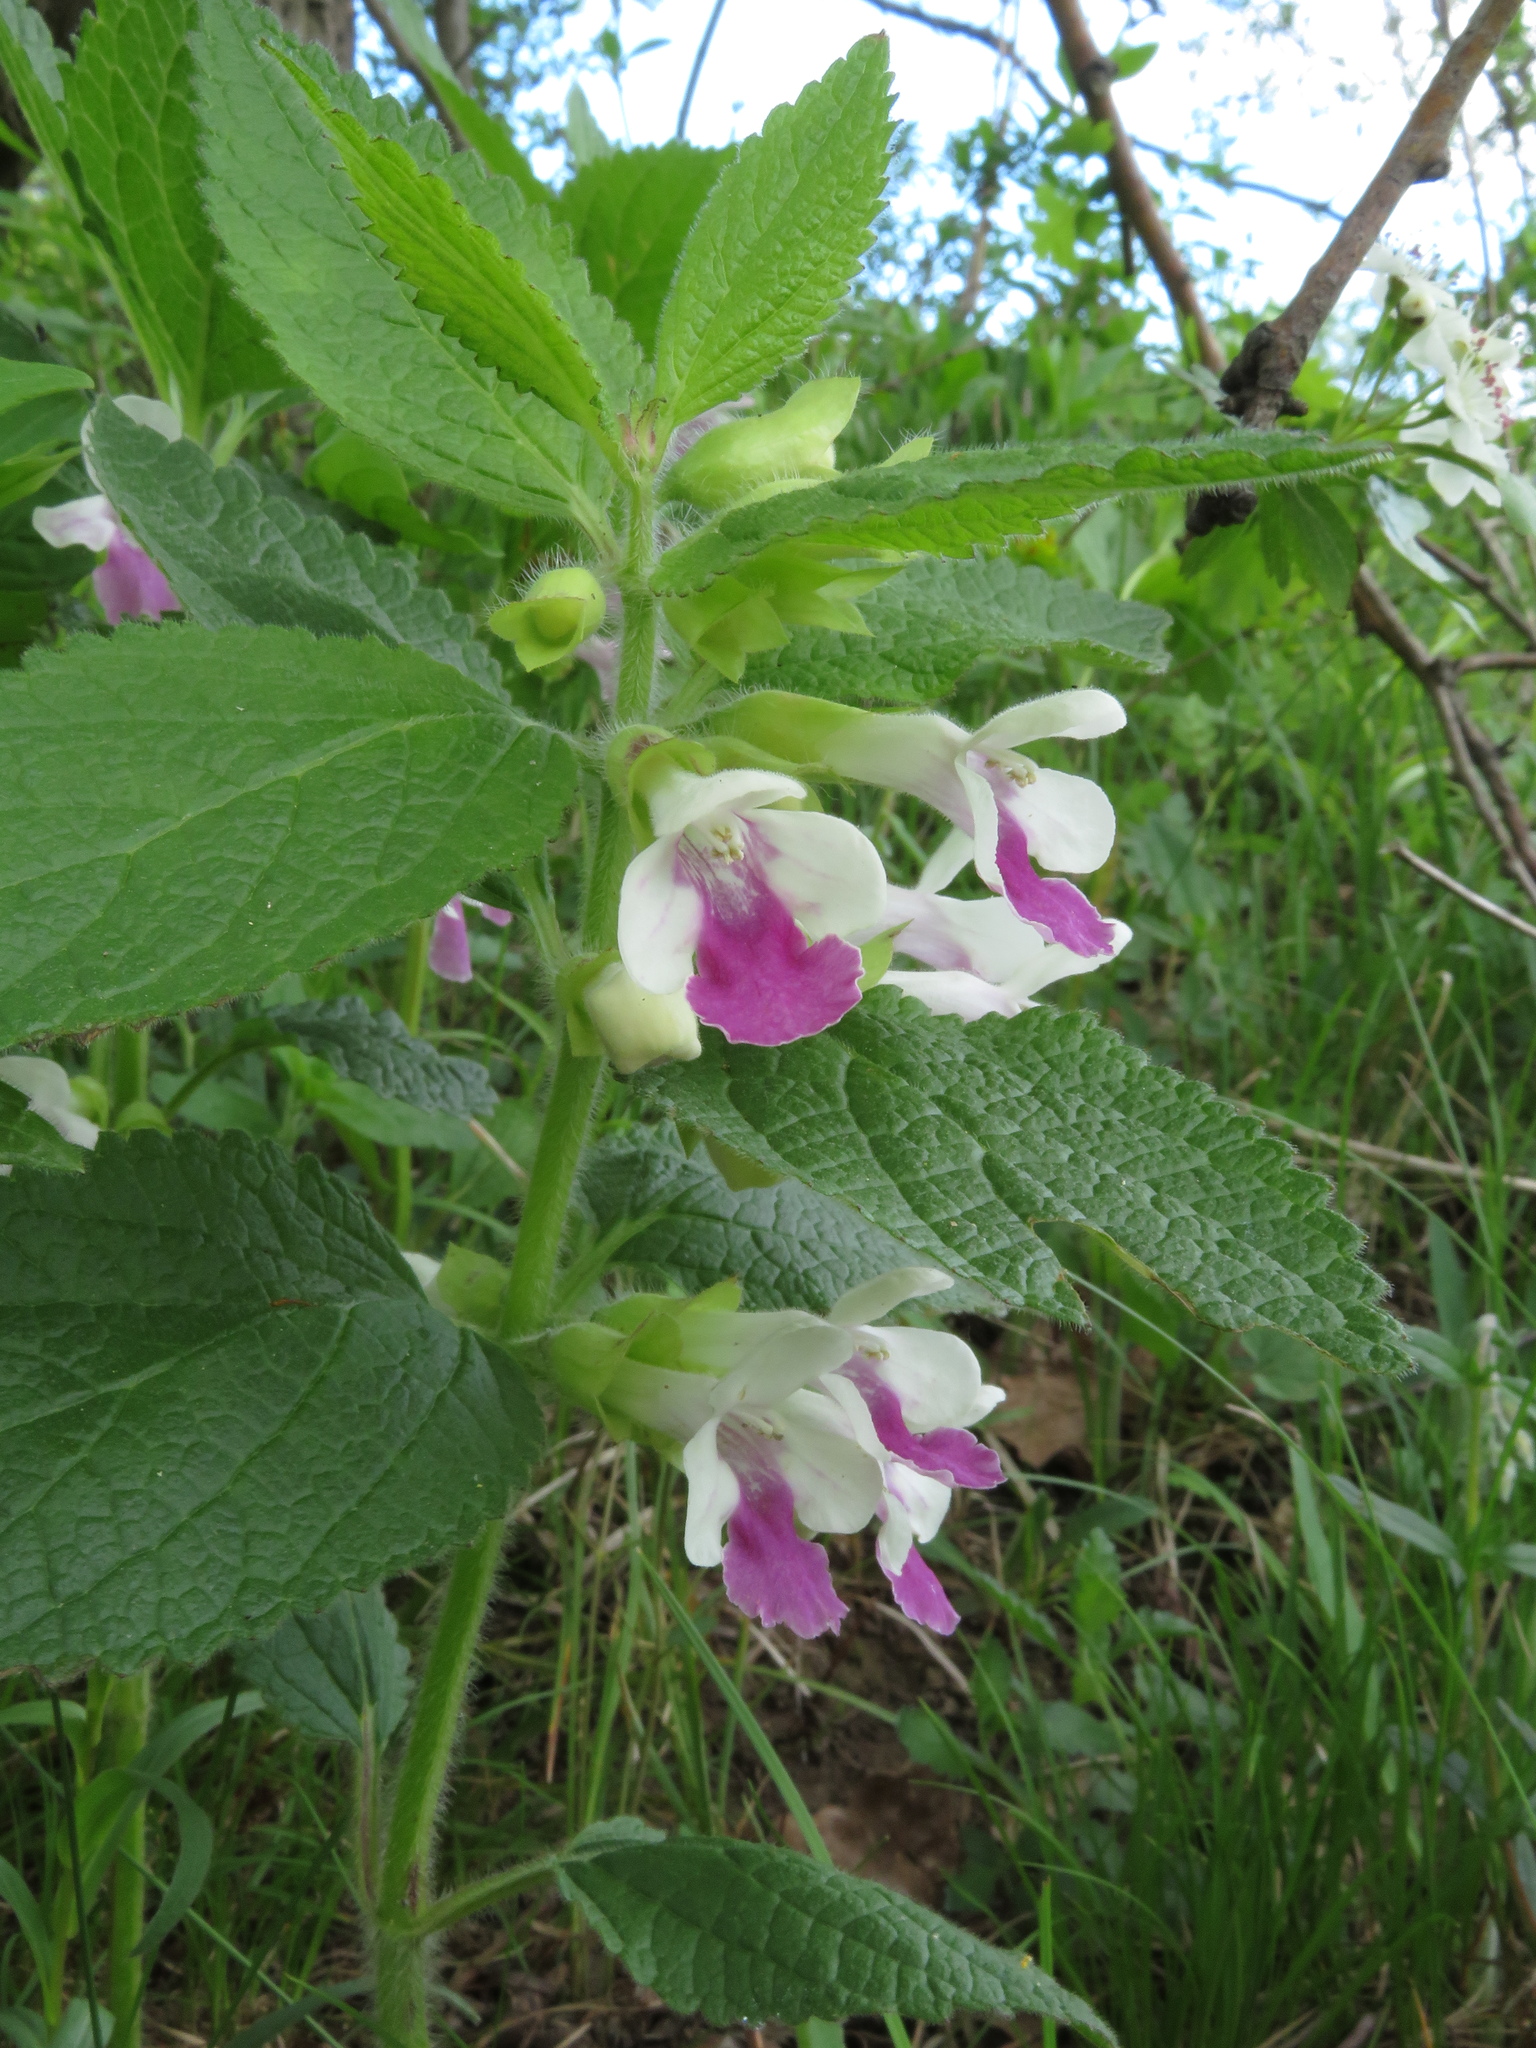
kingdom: Plantae
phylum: Tracheophyta
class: Magnoliopsida
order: Lamiales
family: Lamiaceae
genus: Melittis
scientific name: Melittis melissophyllum
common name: Bastard balm
